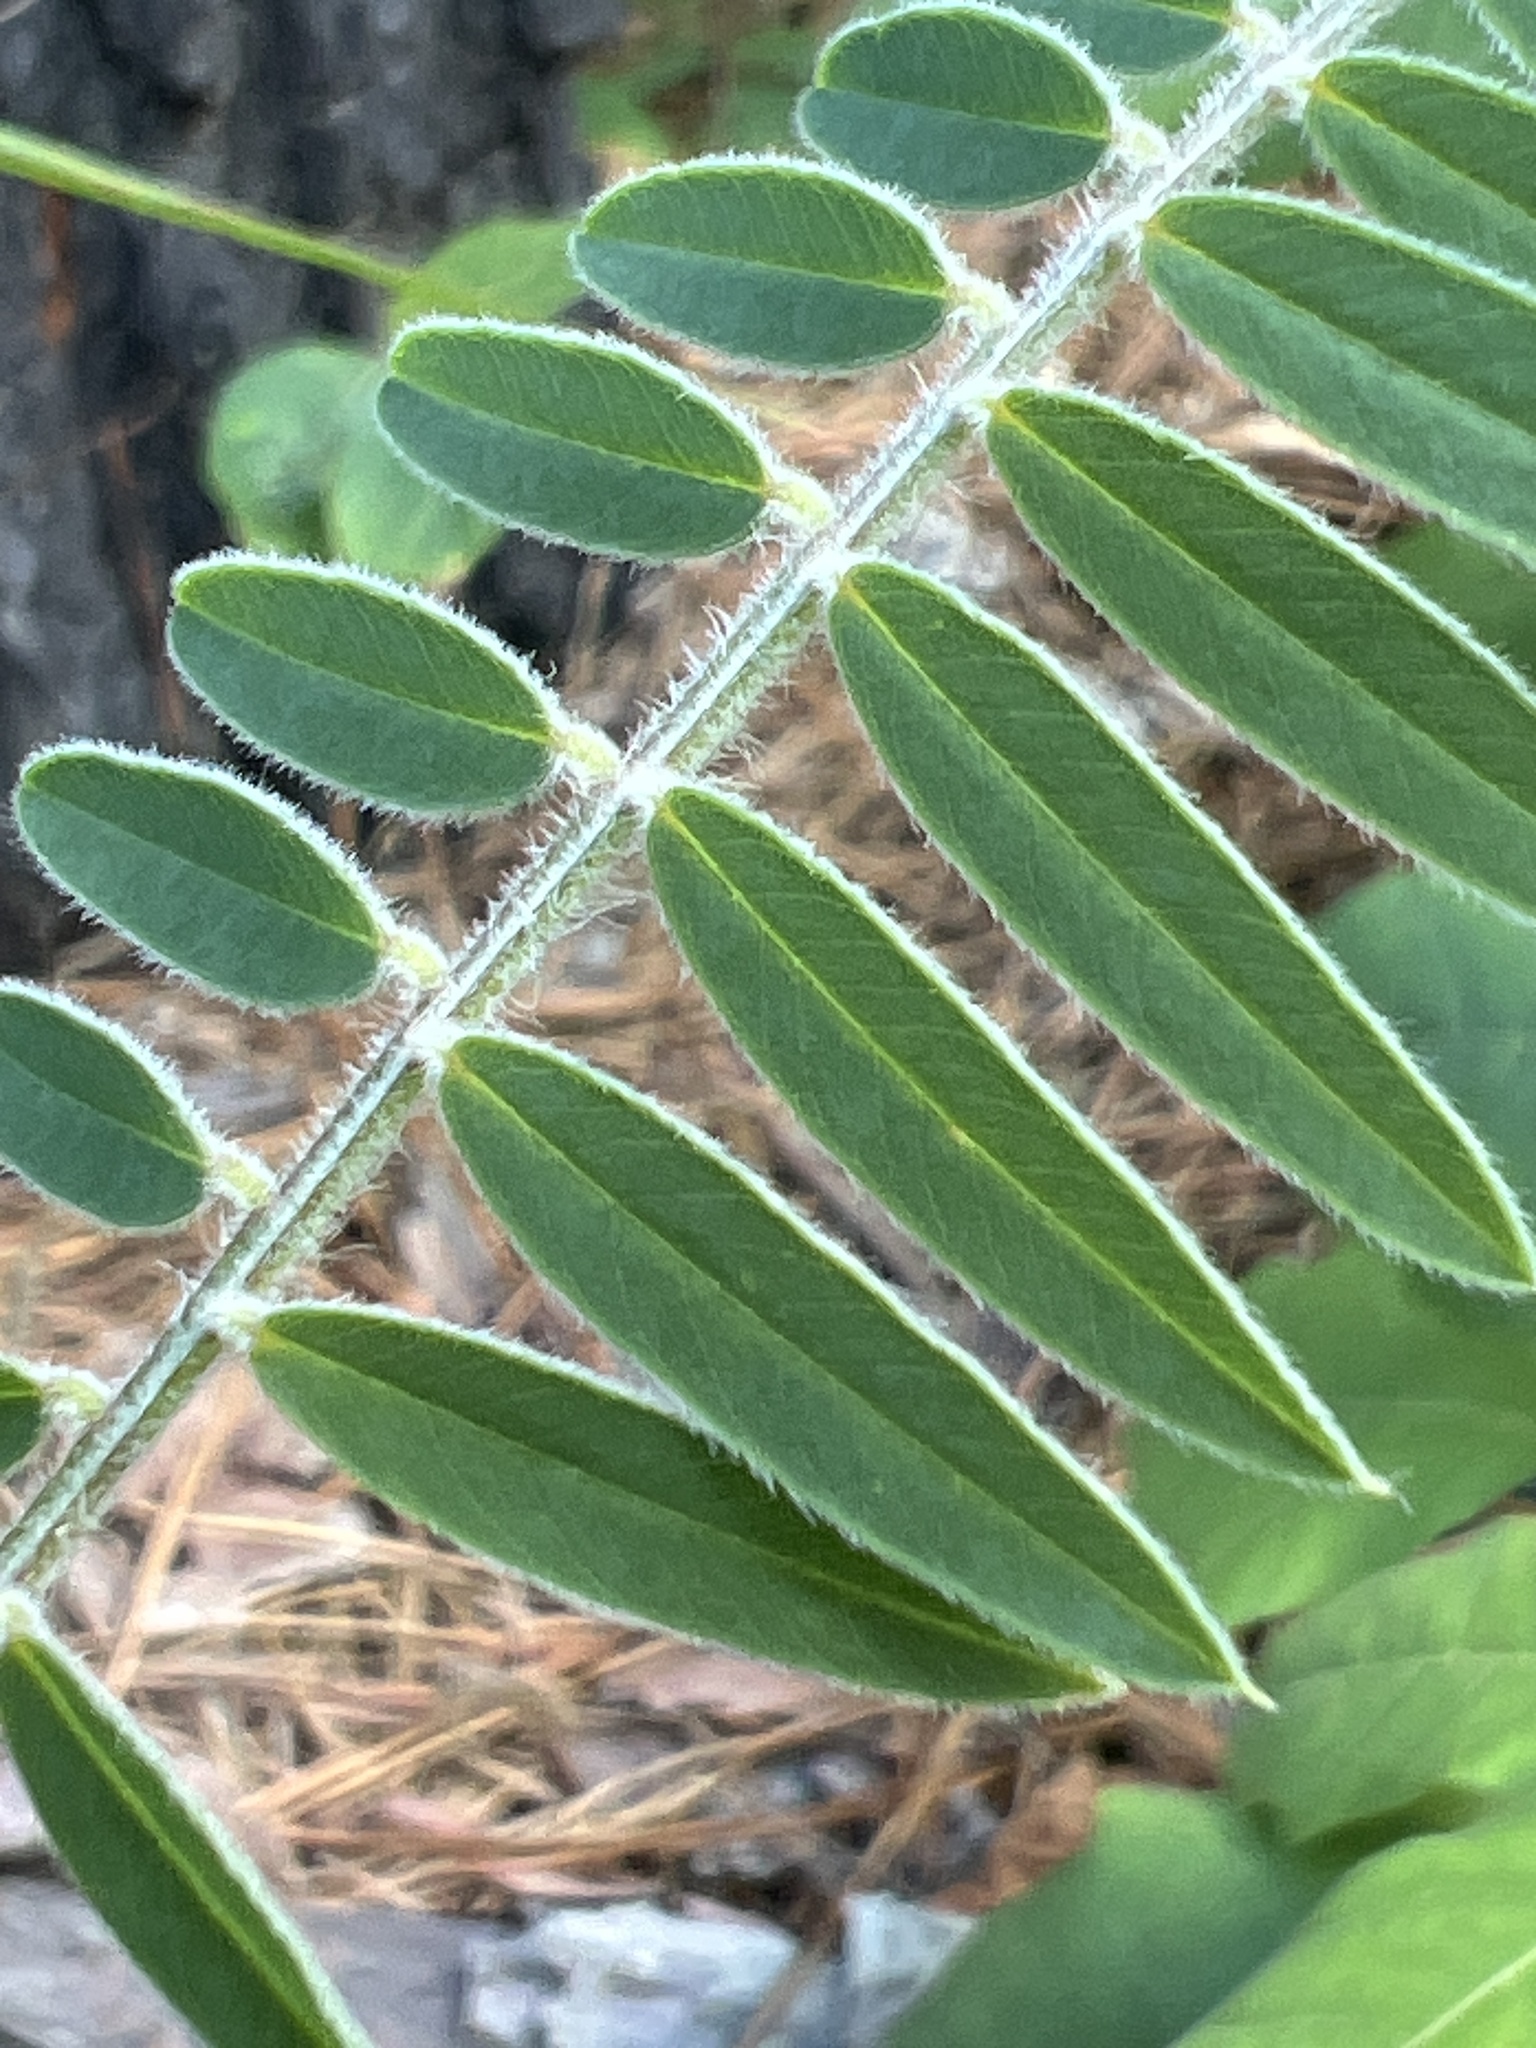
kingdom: Plantae
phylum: Tracheophyta
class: Magnoliopsida
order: Fabales
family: Fabaceae
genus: Tephrosia
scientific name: Tephrosia virginiana
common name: Rabbit-pea
